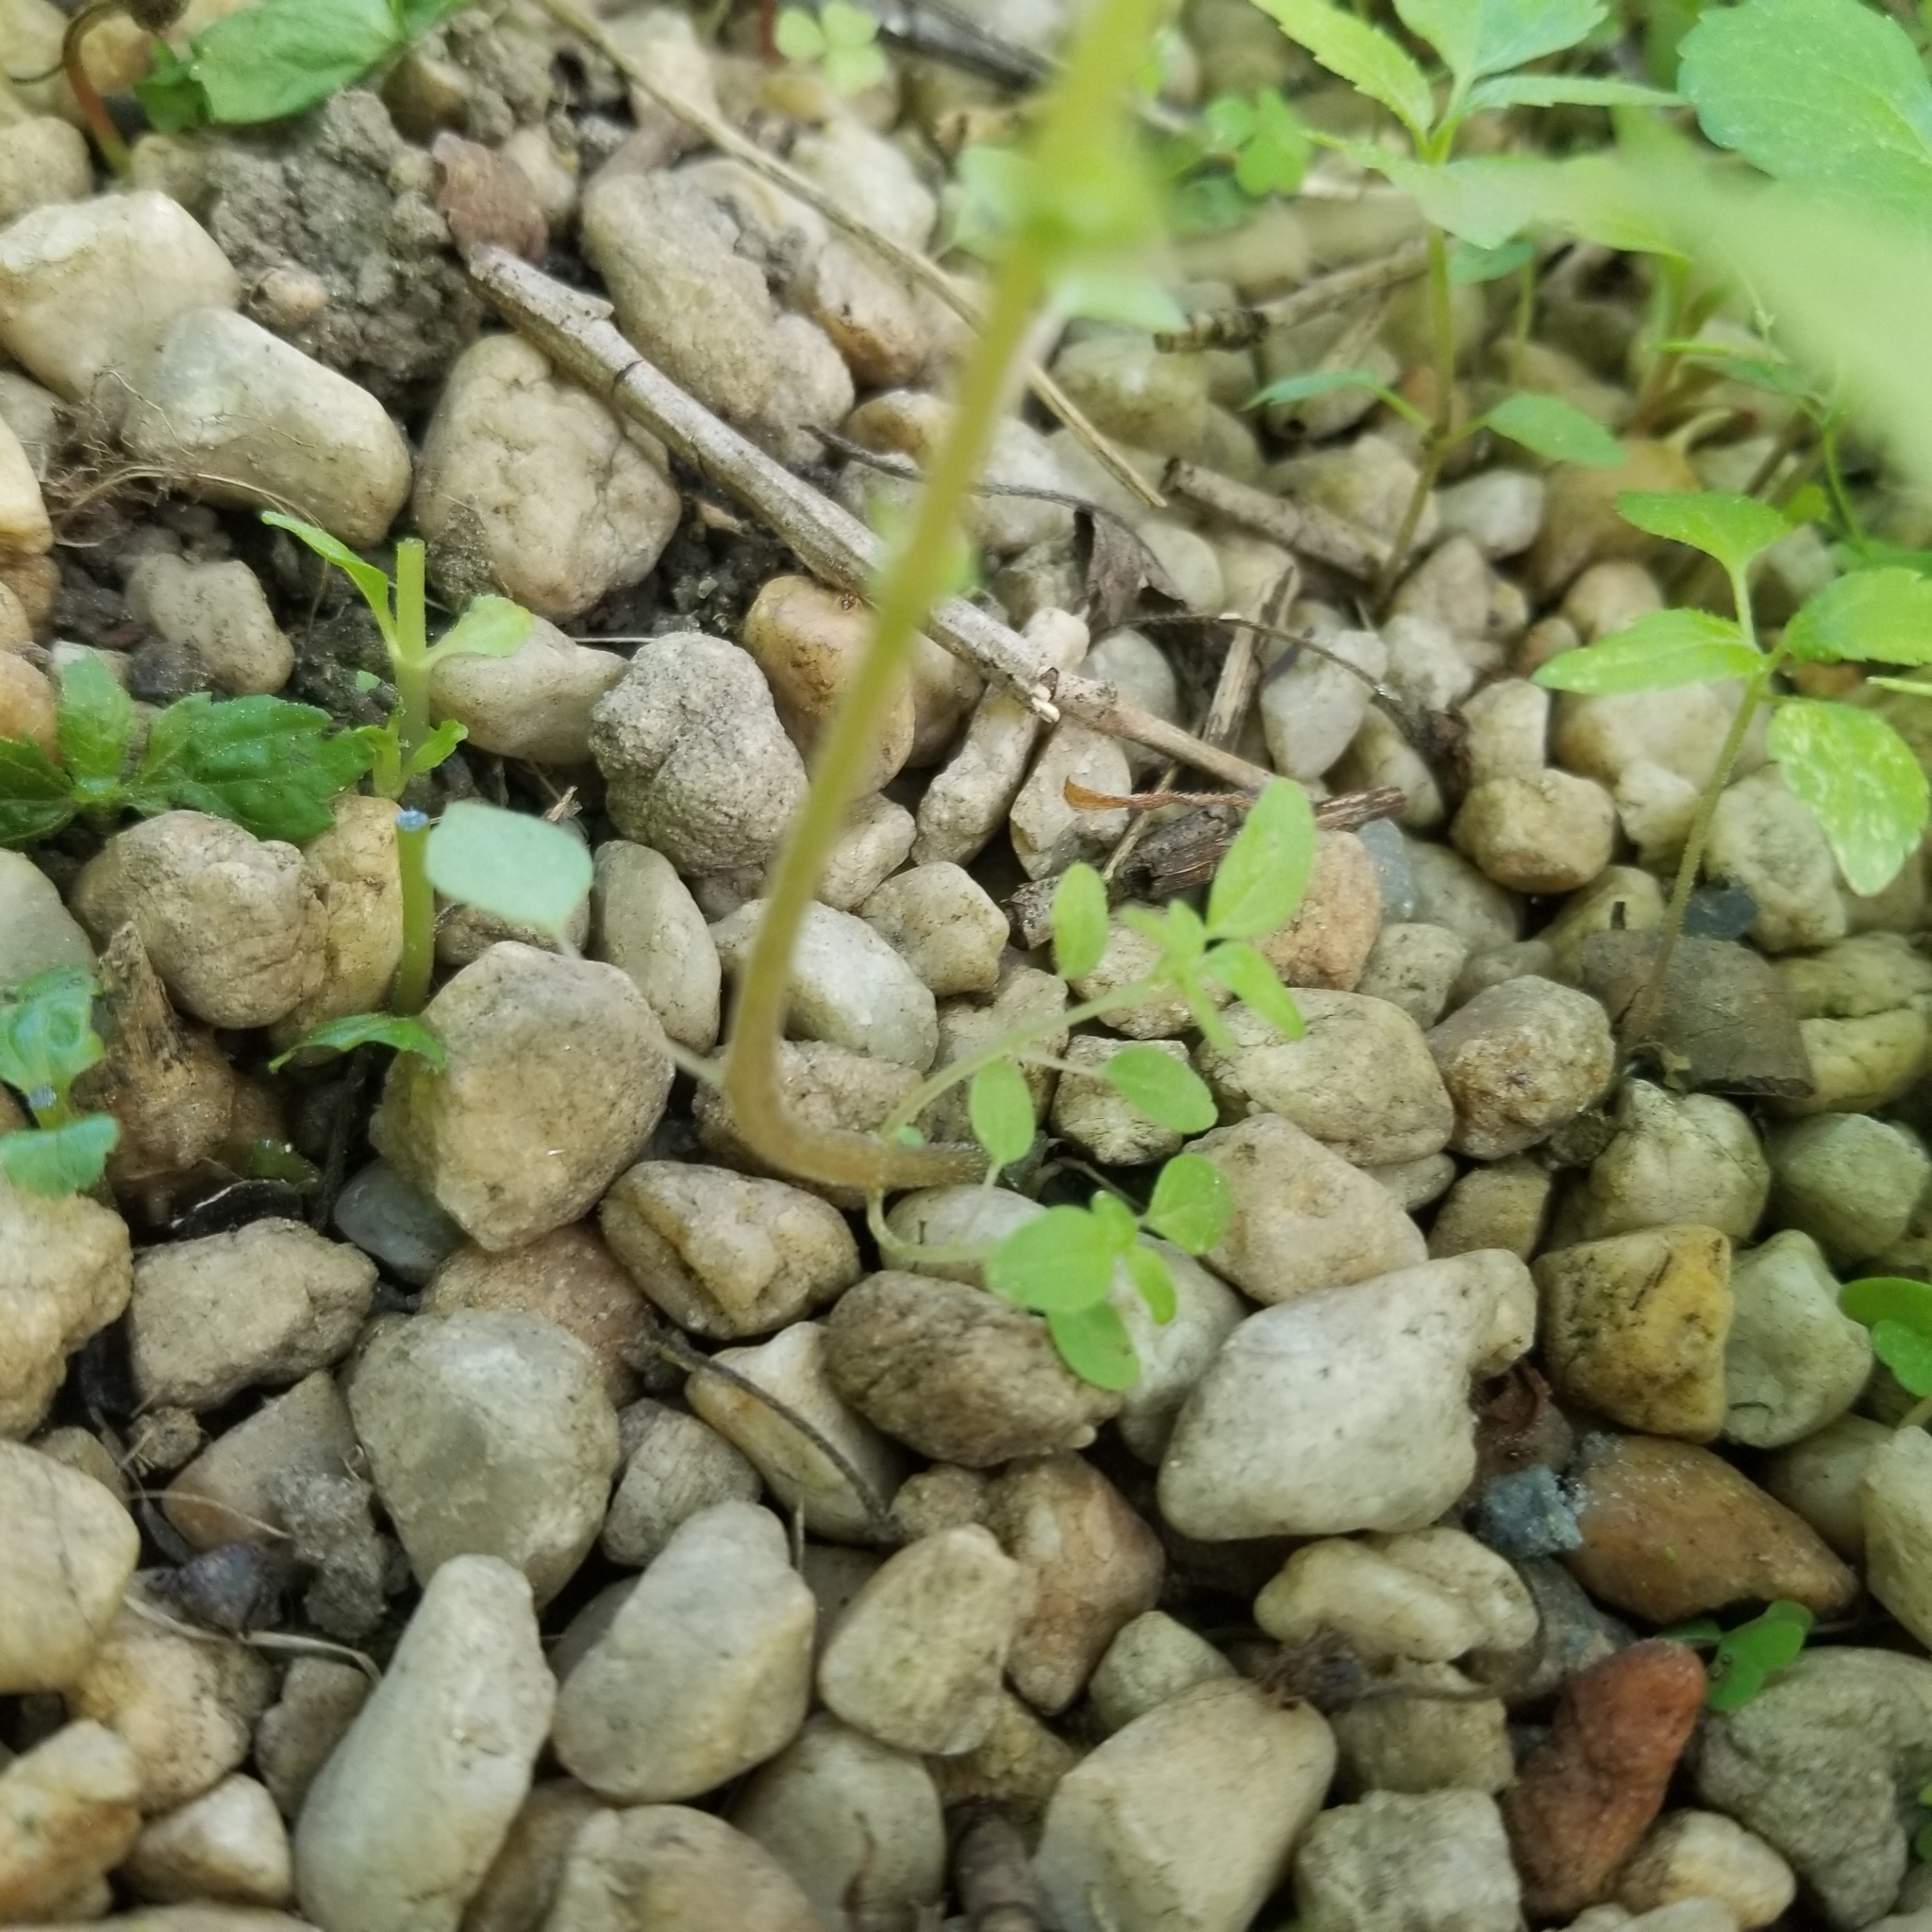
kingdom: Plantae
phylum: Tracheophyta
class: Magnoliopsida
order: Rosales
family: Urticaceae
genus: Parietaria
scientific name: Parietaria pensylvanica
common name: Pennsylvania pellitory
